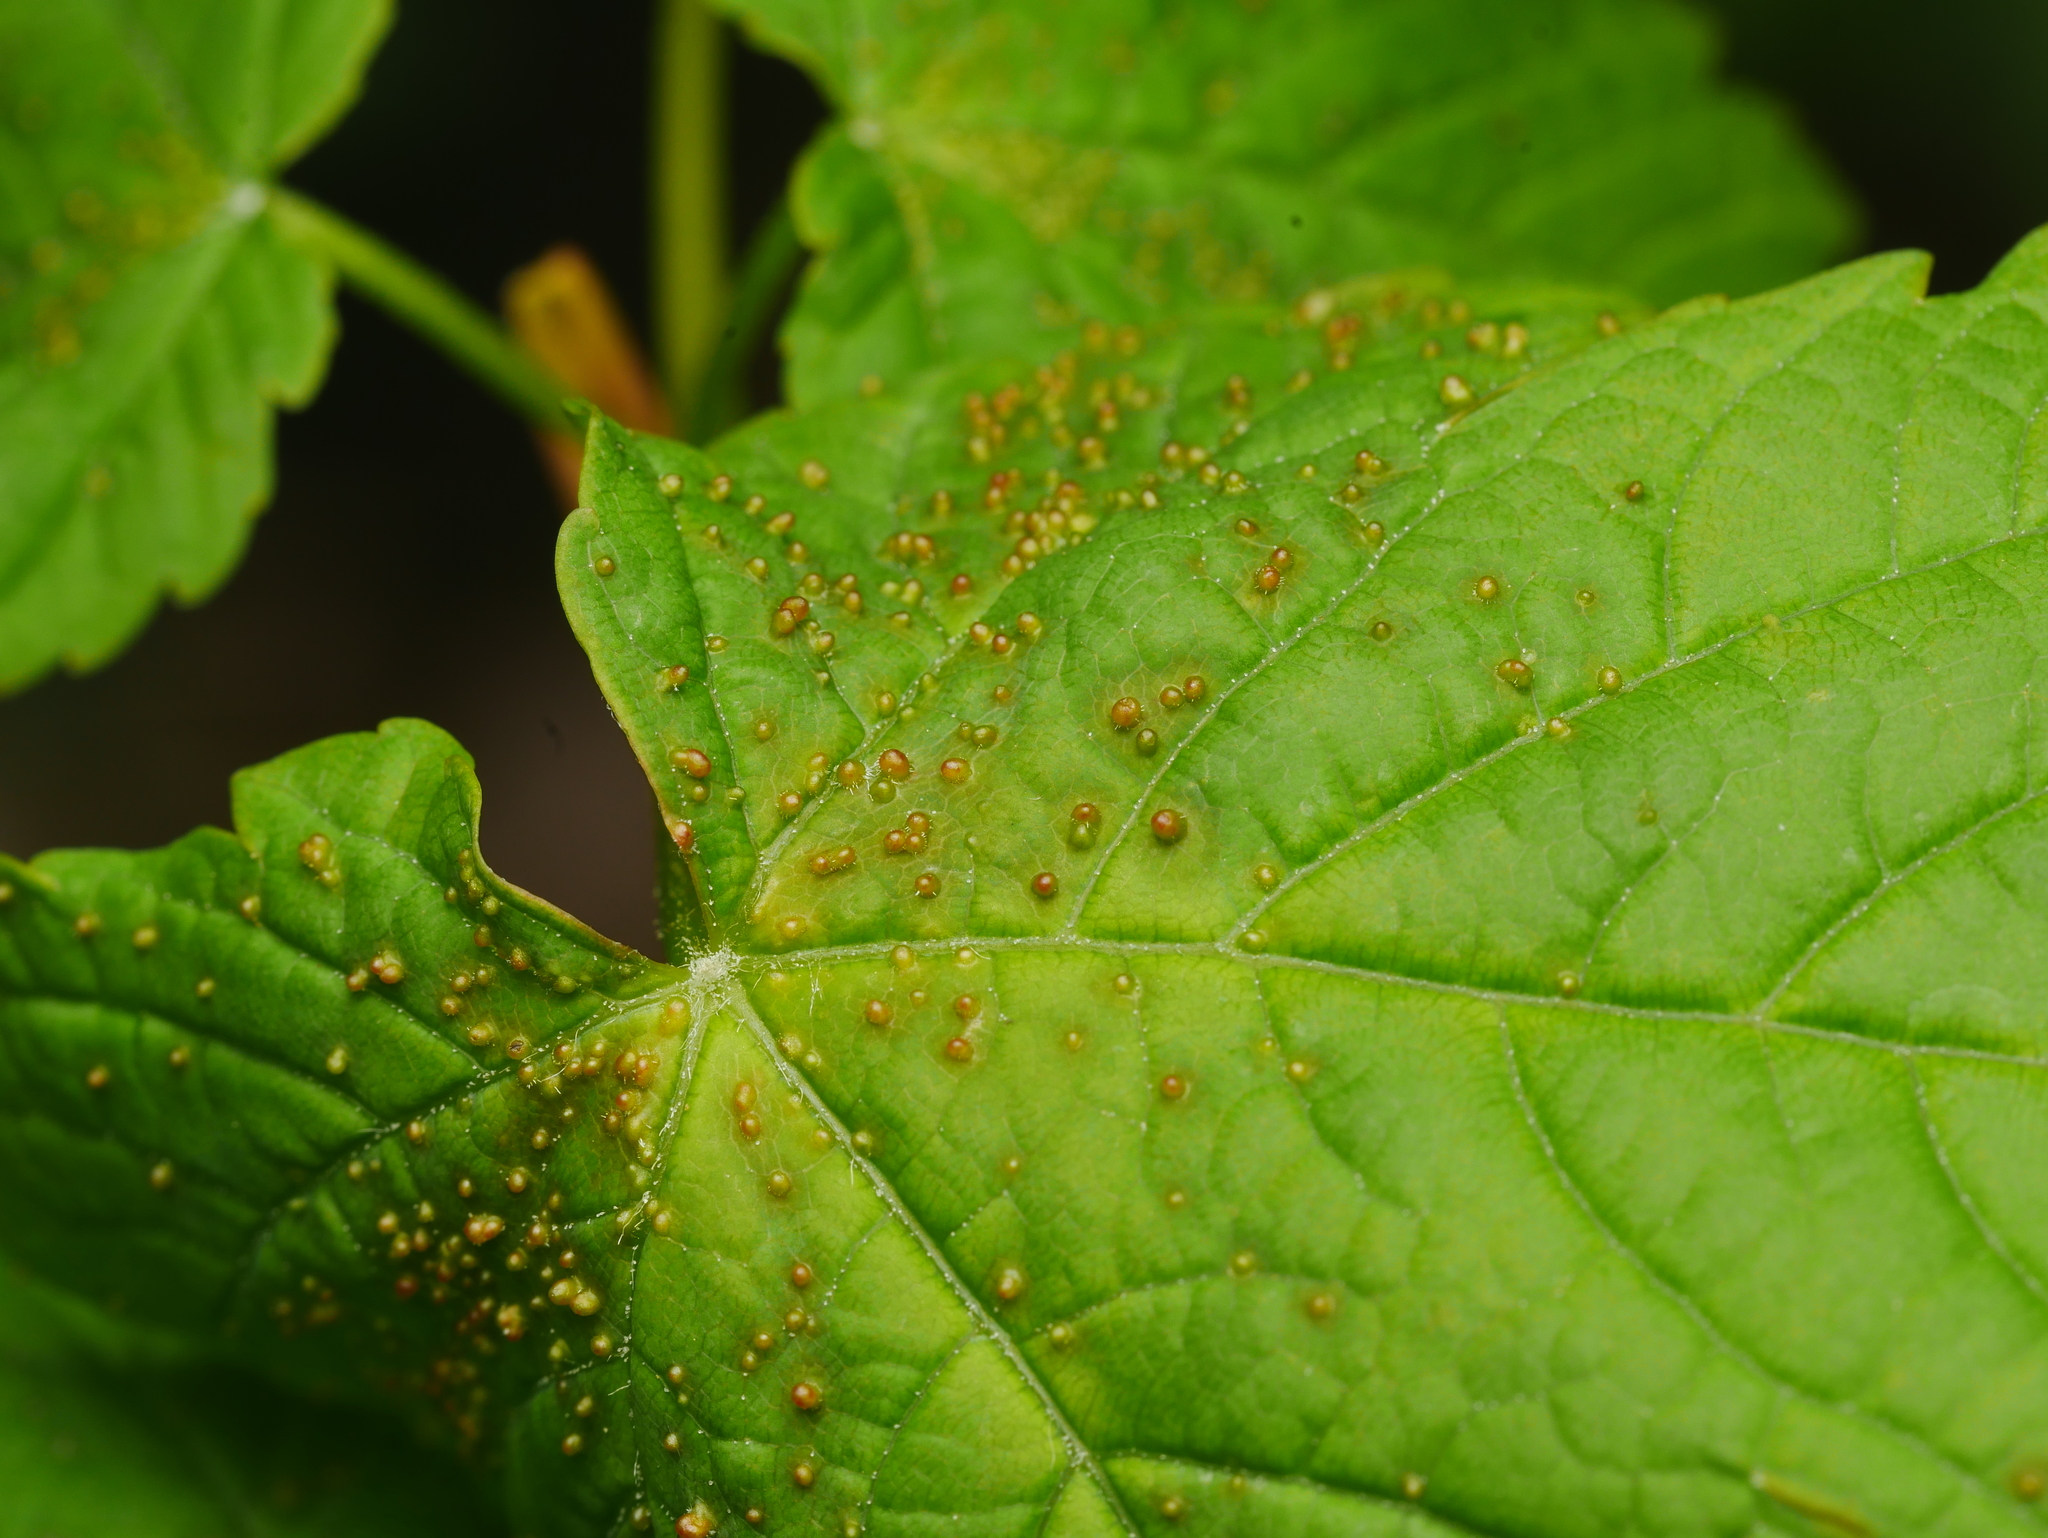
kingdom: Animalia
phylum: Arthropoda
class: Arachnida
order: Trombidiformes
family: Eriophyidae
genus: Aceria
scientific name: Aceria cephaloneus
